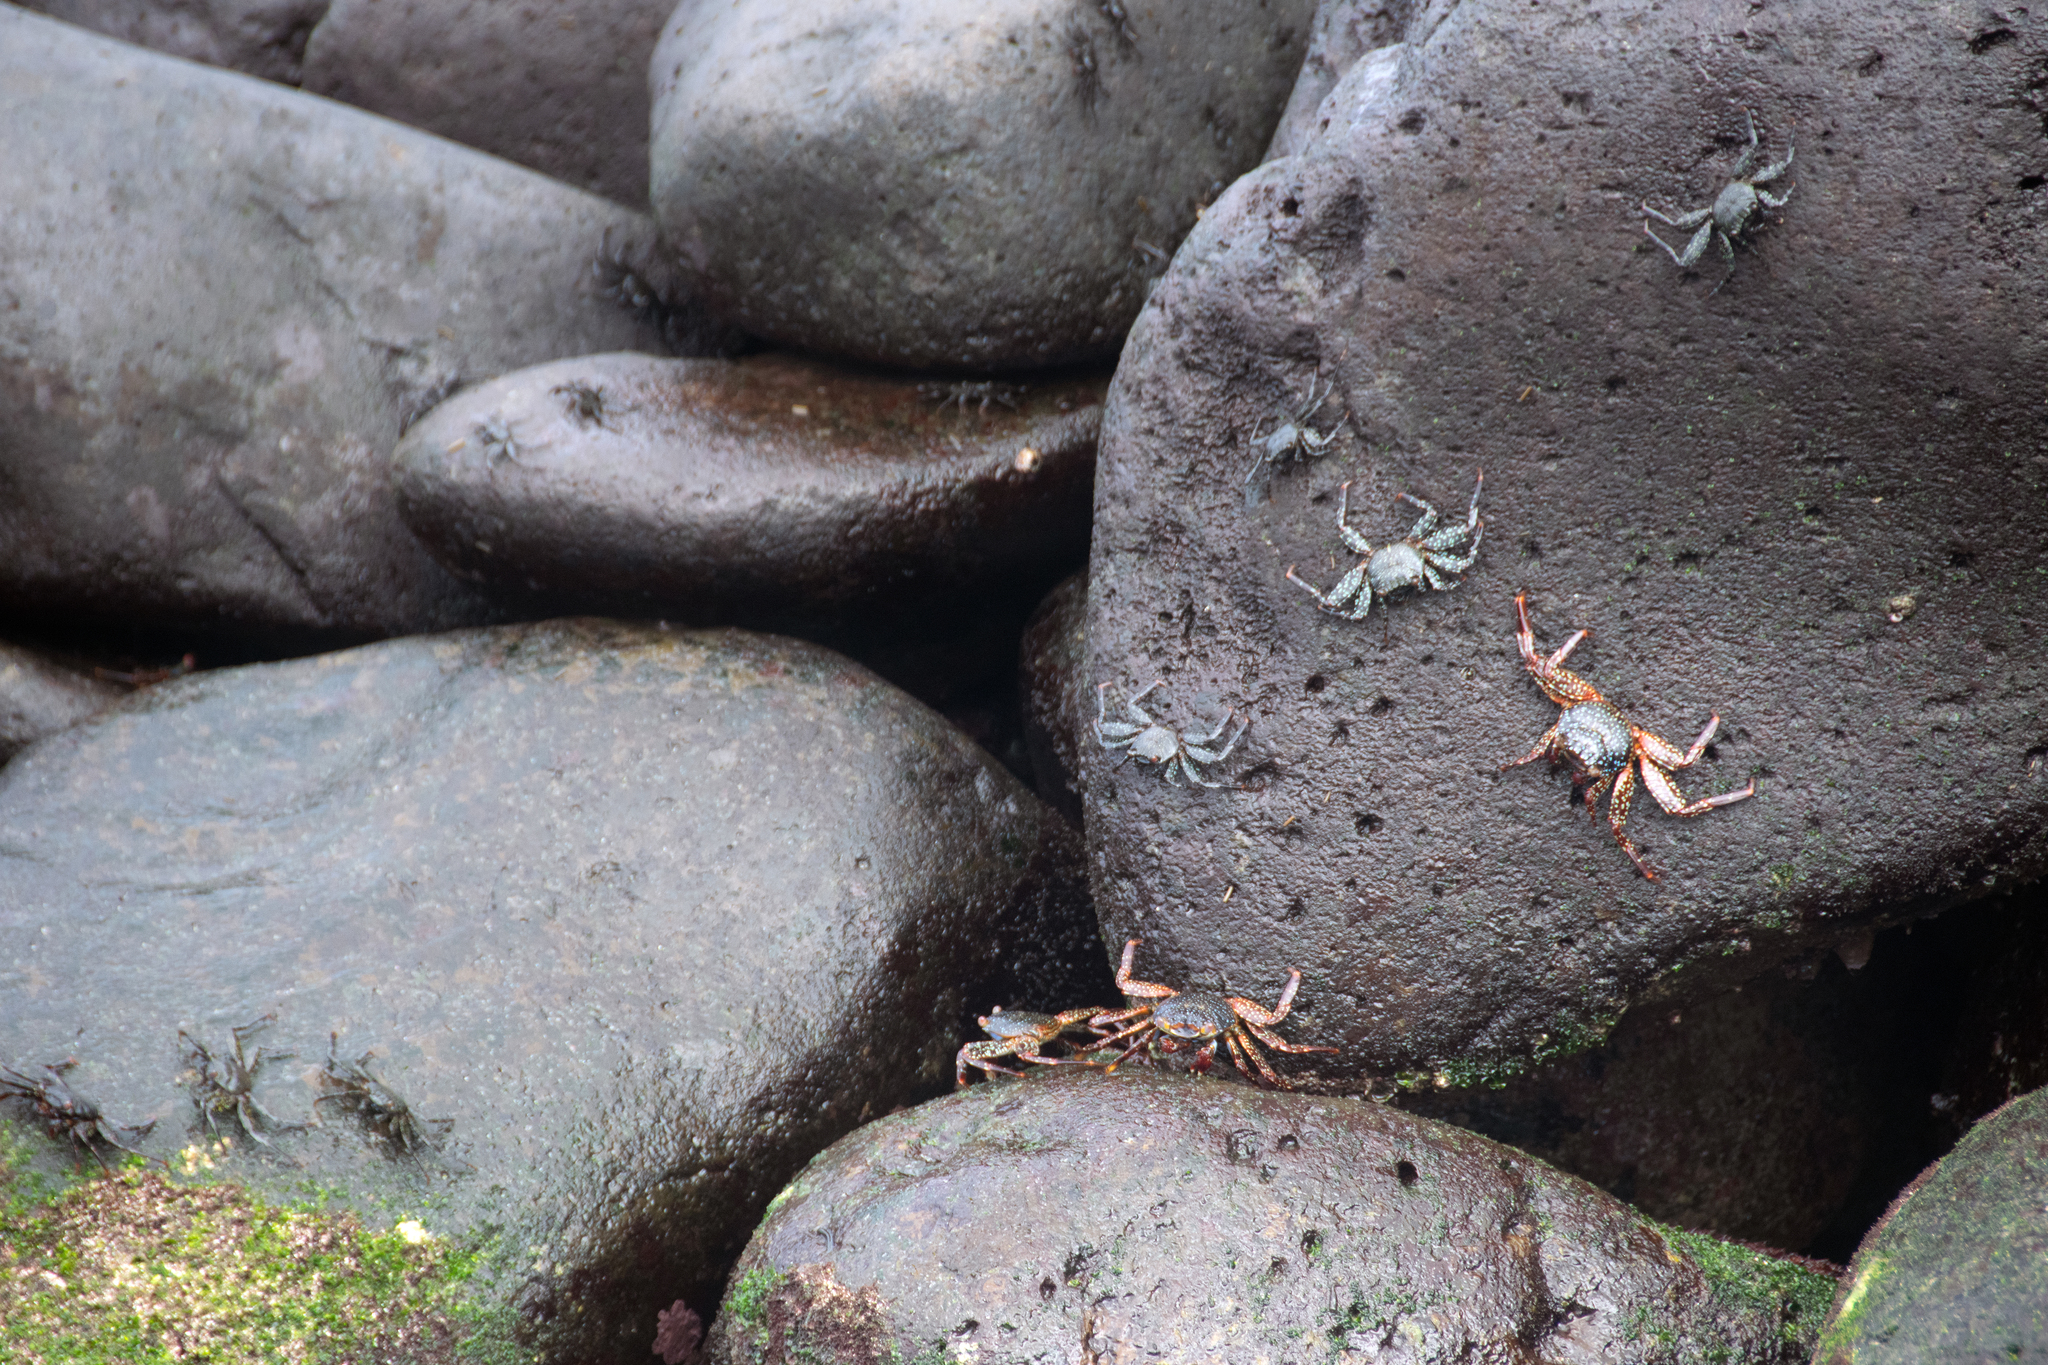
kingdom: Animalia
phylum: Arthropoda
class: Malacostraca
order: Decapoda
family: Grapsidae
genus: Grapsus
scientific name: Grapsus grapsus
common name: Sally lightfoot
